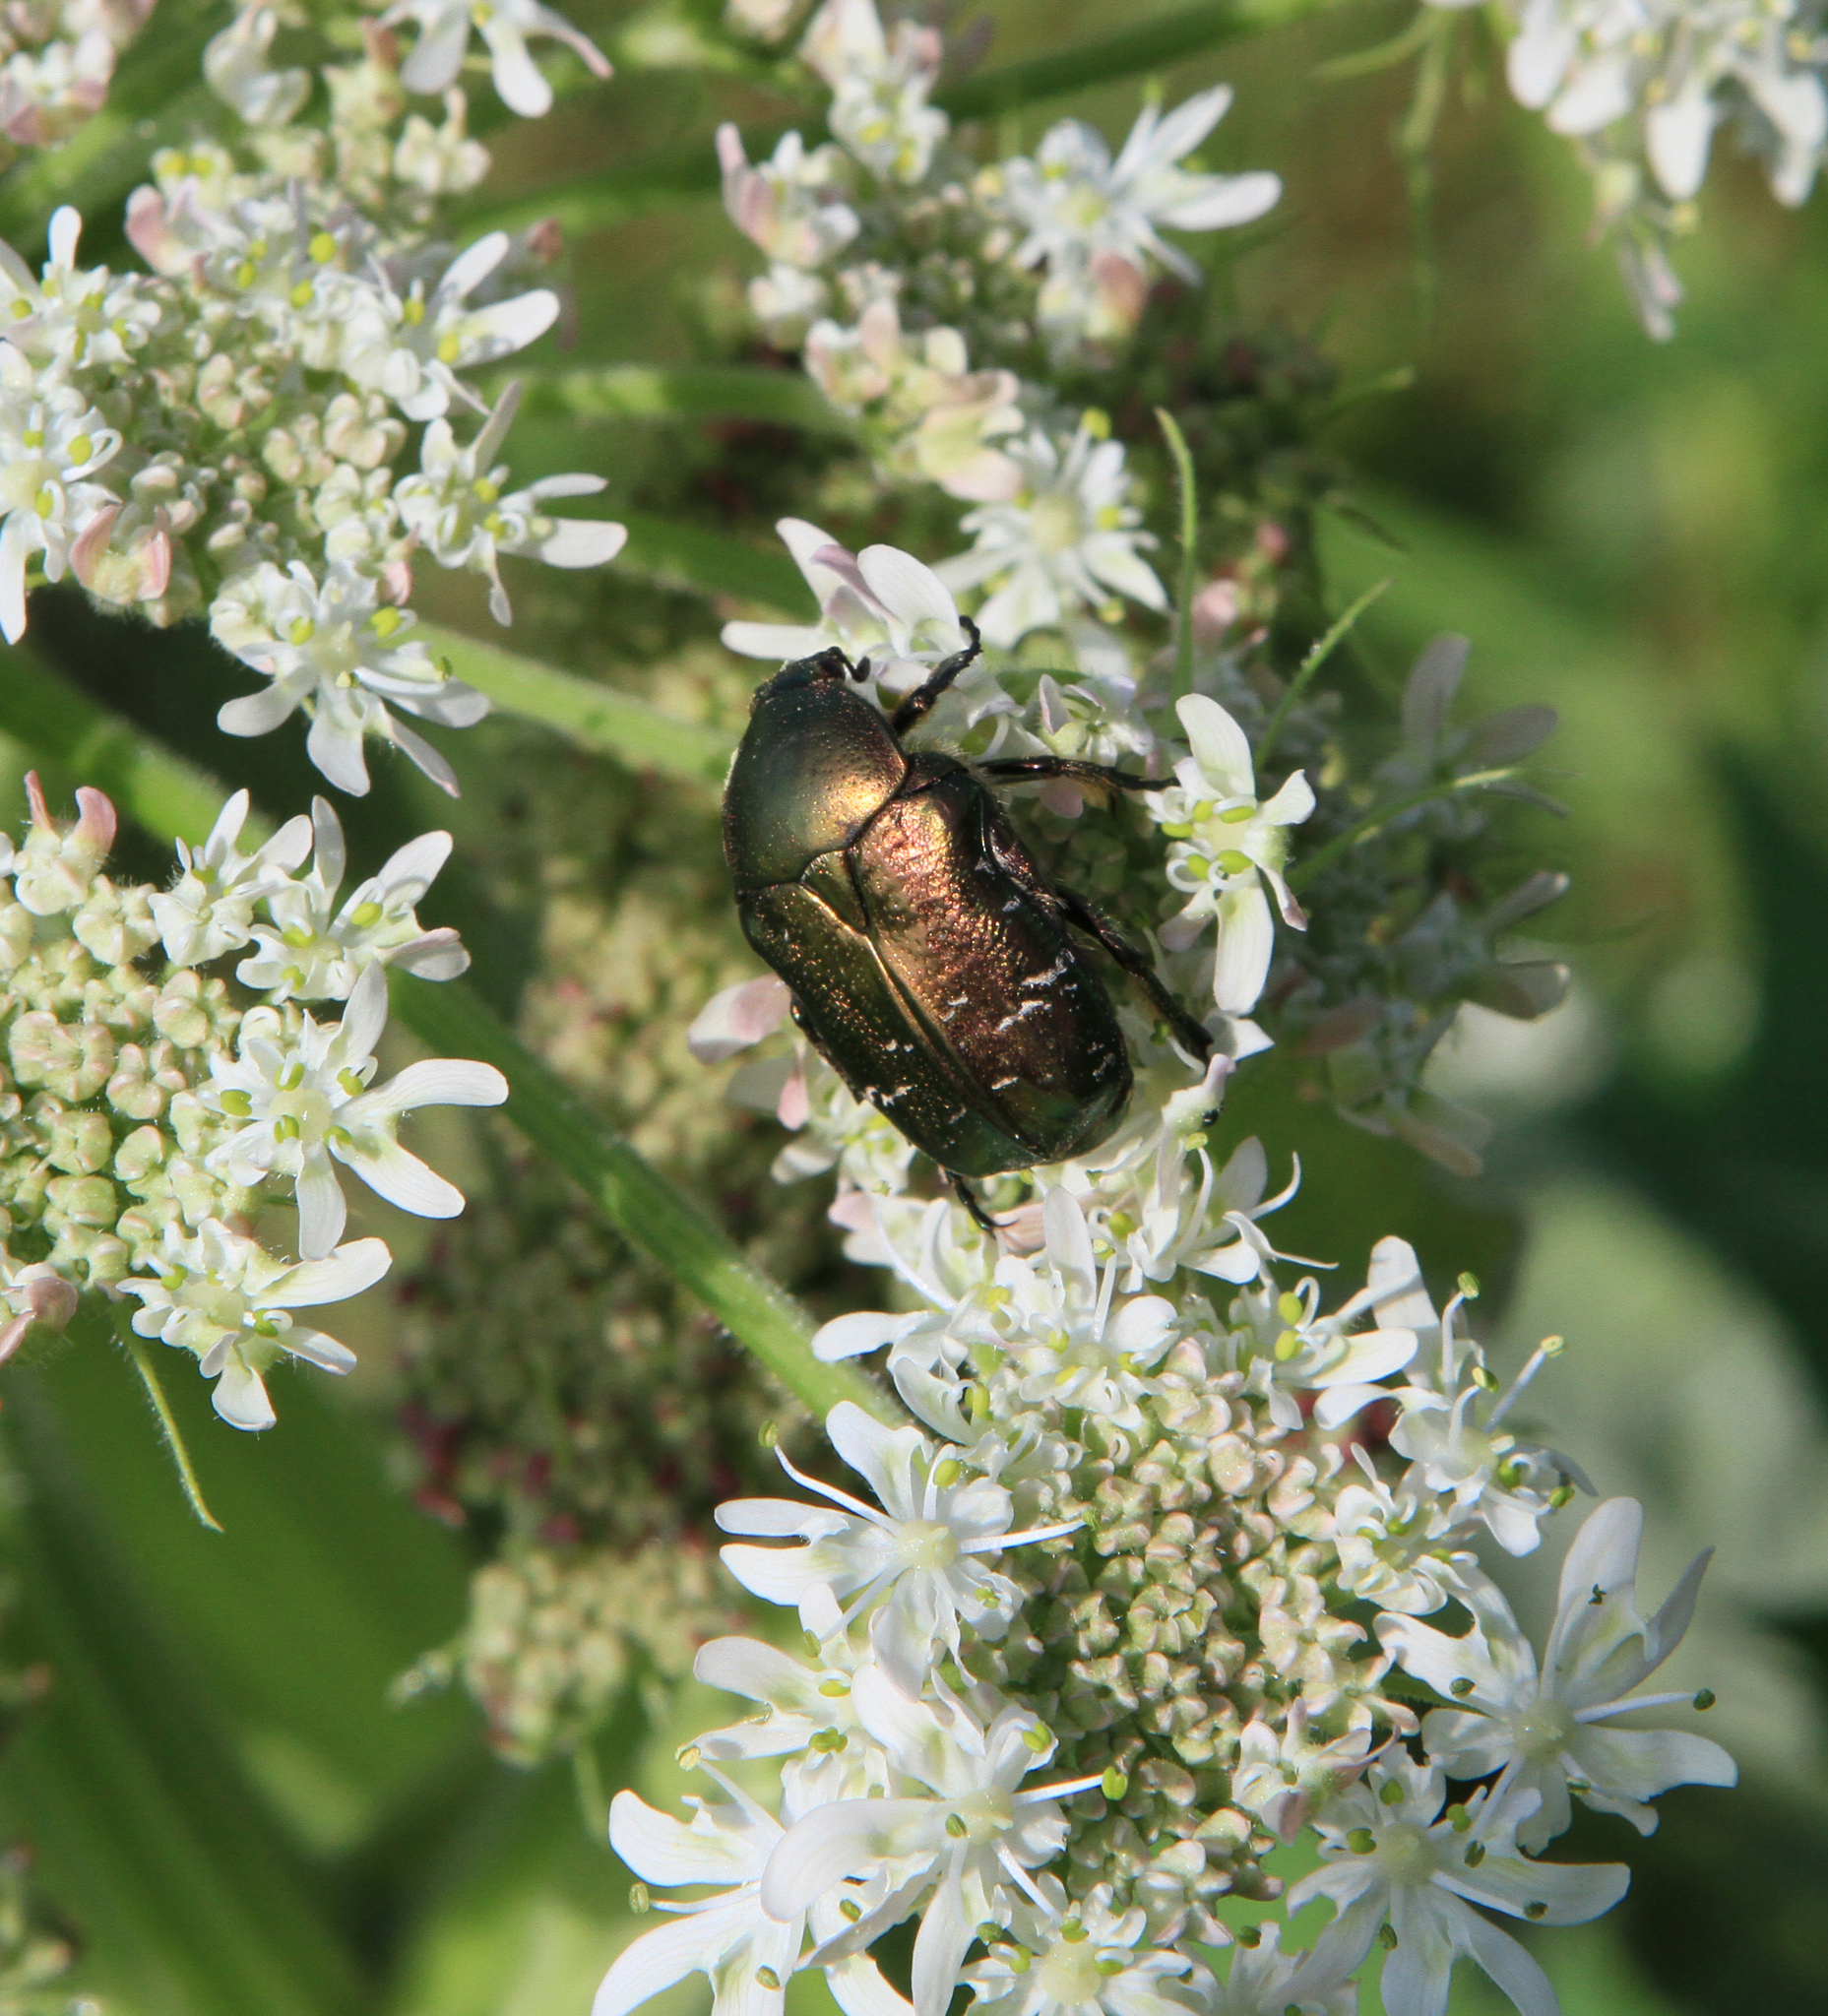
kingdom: Animalia
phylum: Arthropoda
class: Insecta
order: Coleoptera
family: Scarabaeidae
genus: Cetonia
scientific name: Cetonia aurata
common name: Rose chafer
